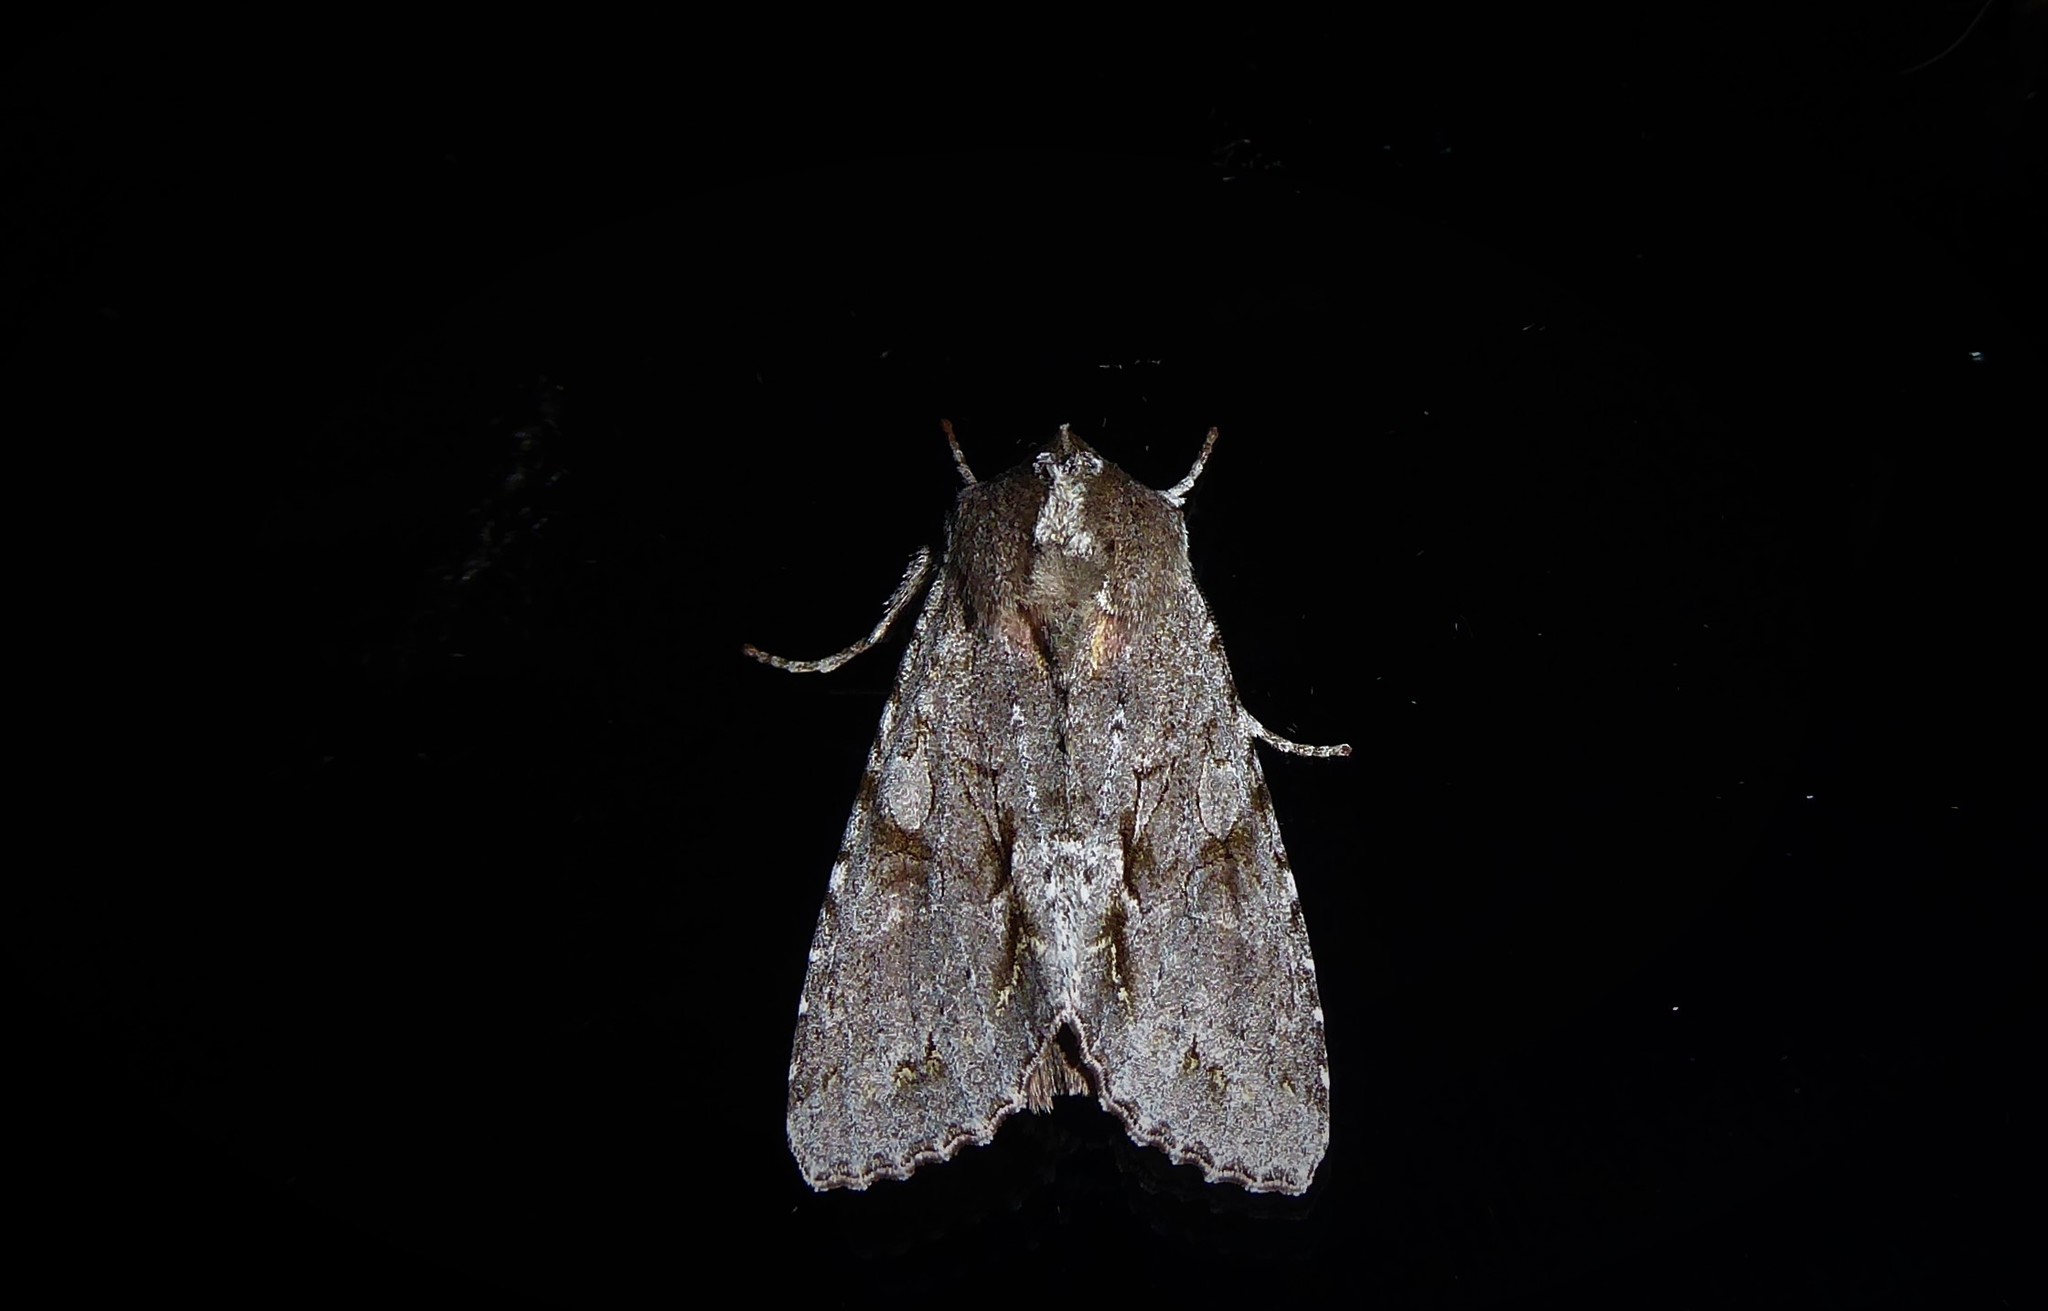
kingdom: Animalia
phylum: Arthropoda
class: Insecta
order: Lepidoptera
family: Noctuidae
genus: Ichneutica
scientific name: Ichneutica
